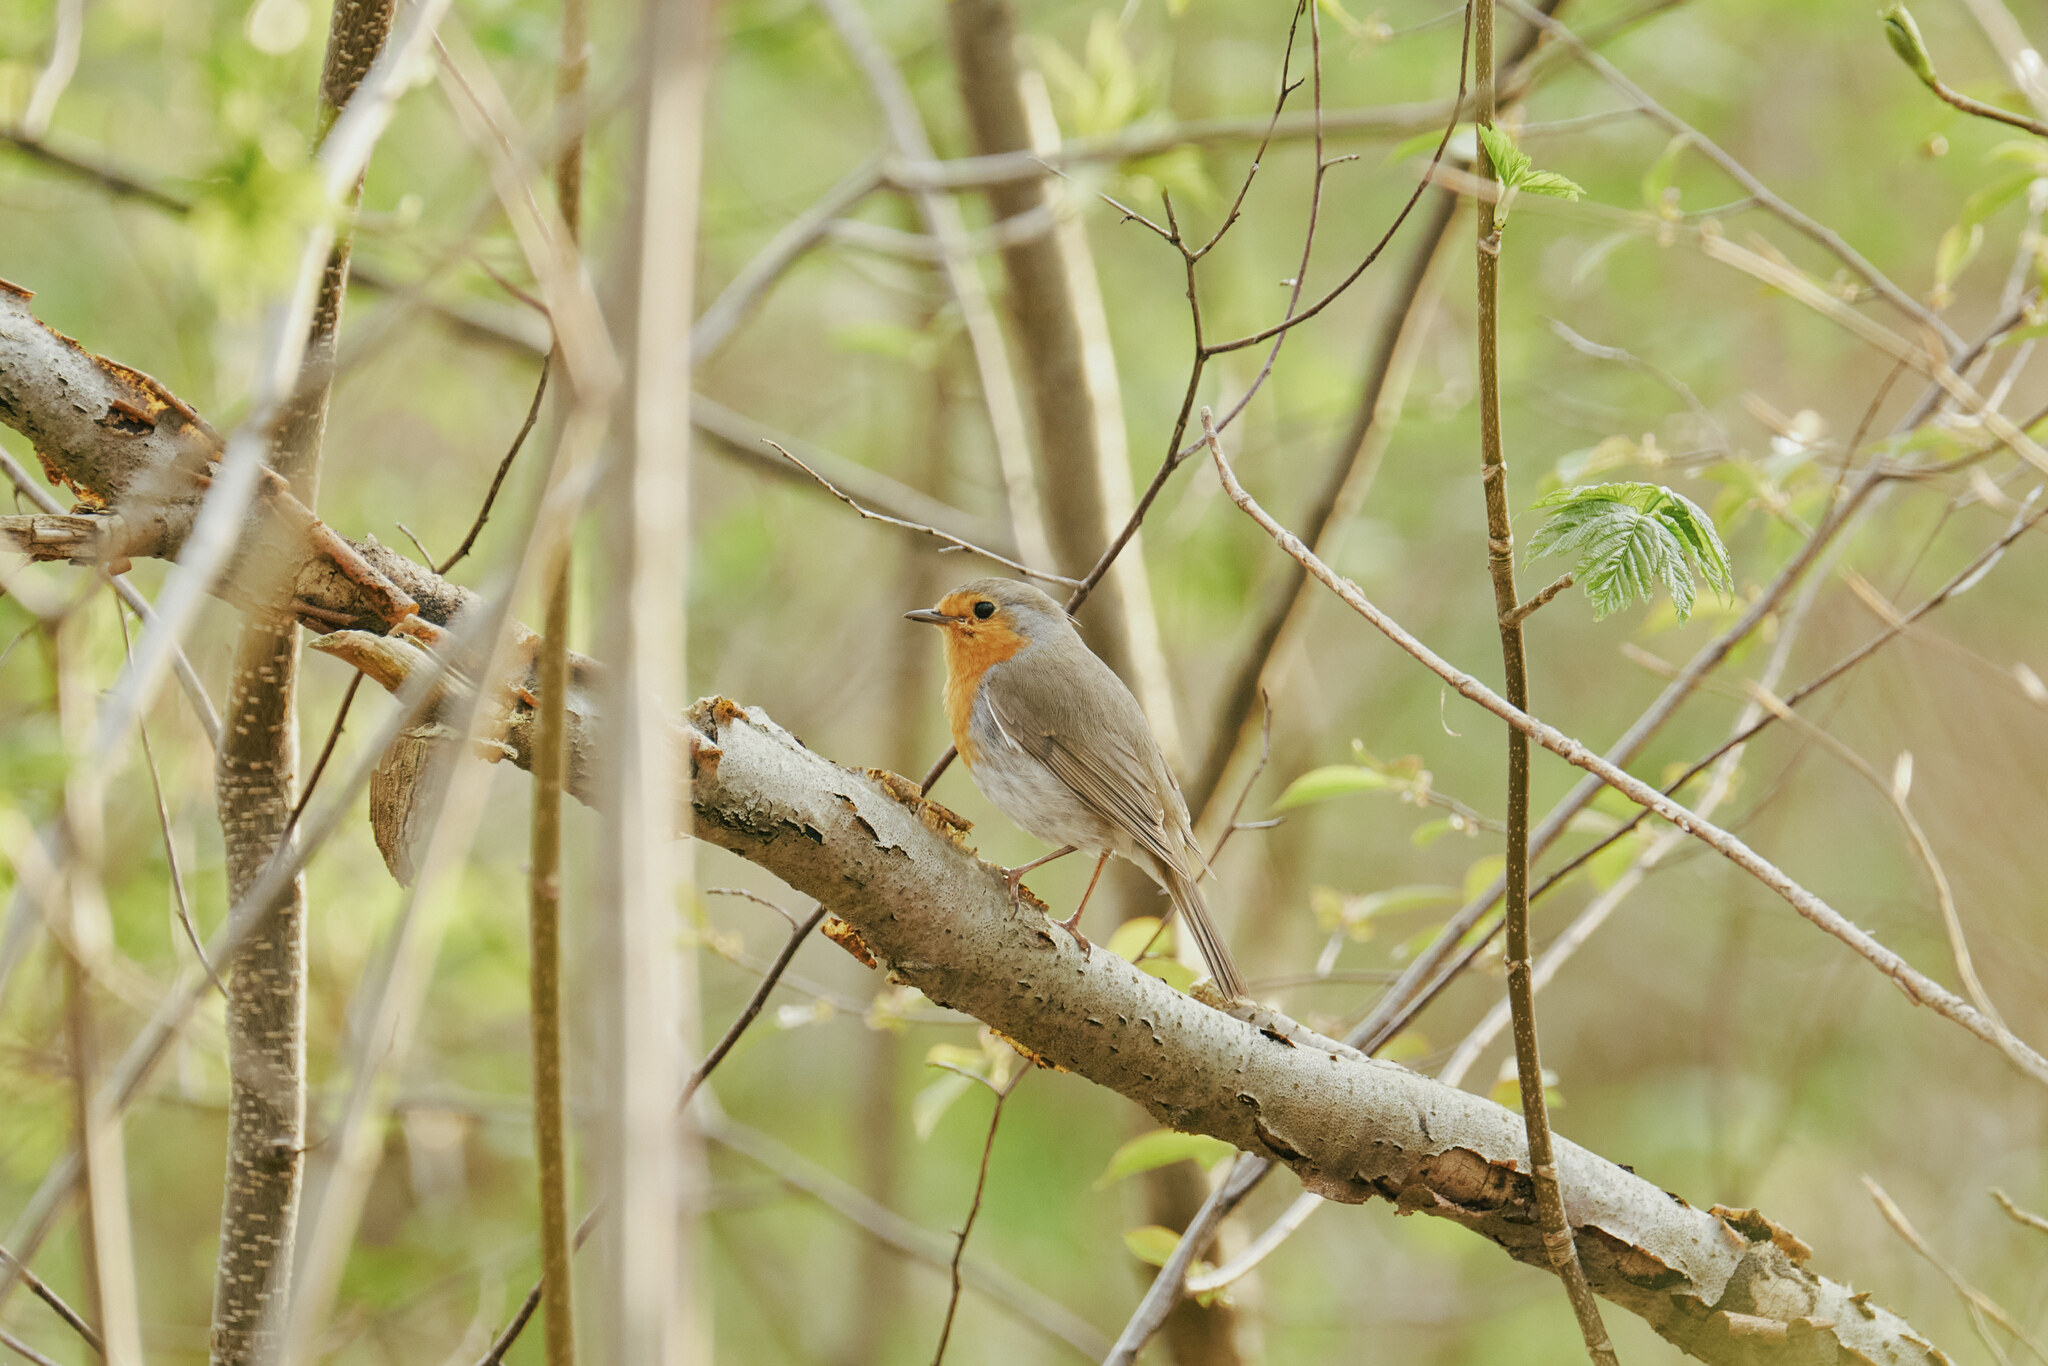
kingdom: Animalia
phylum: Chordata
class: Aves
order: Passeriformes
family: Muscicapidae
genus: Erithacus
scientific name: Erithacus rubecula
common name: European robin
